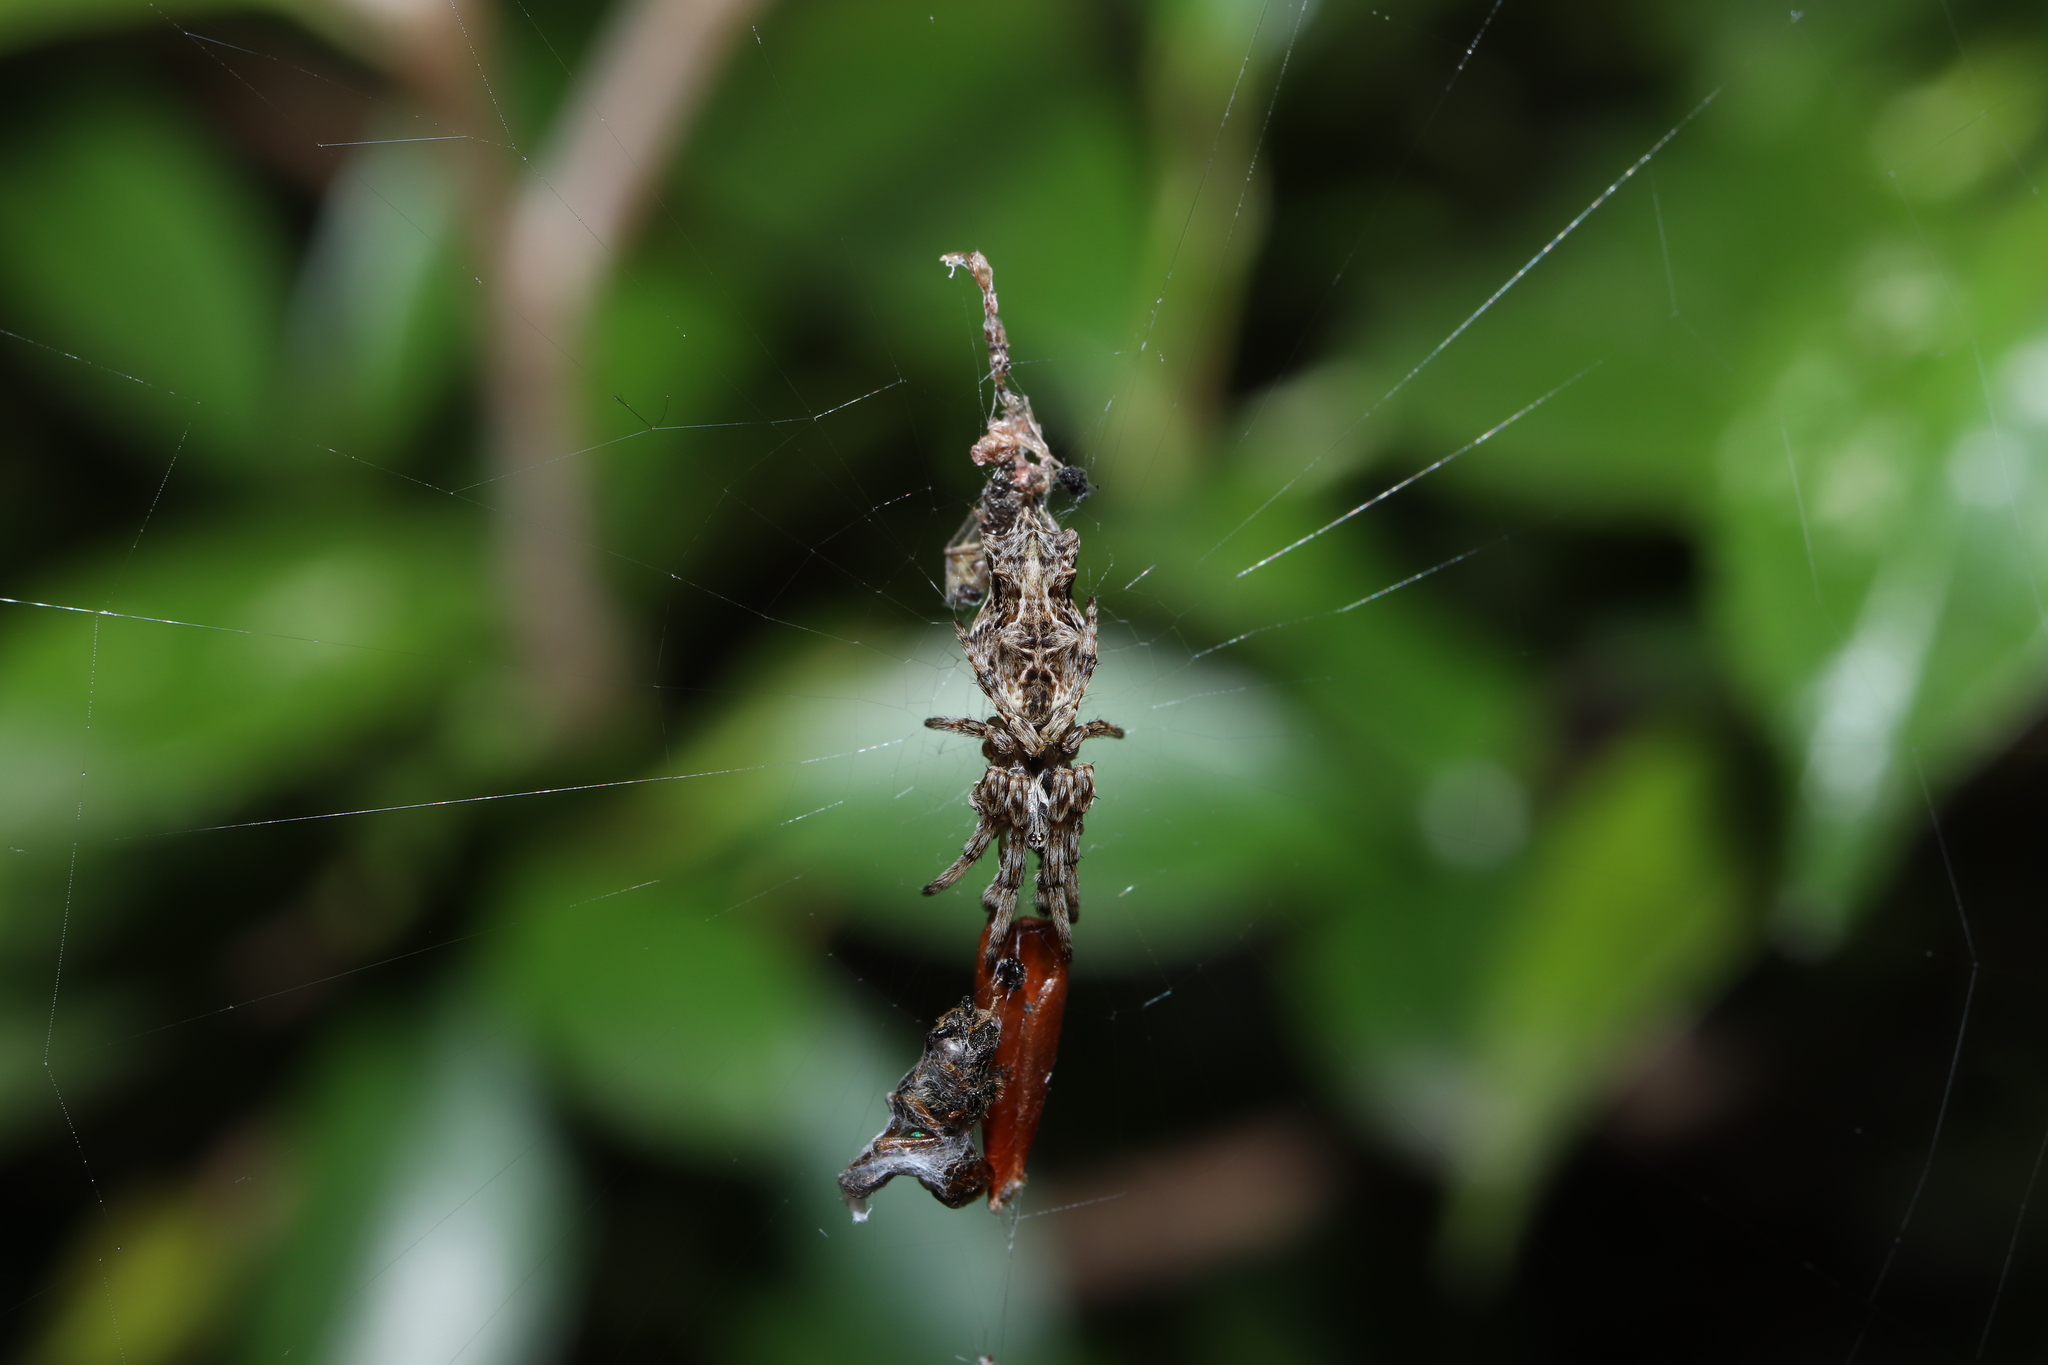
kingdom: Animalia
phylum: Arthropoda
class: Arachnida
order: Araneae
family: Araneidae
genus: Cyclosa
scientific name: Cyclosa octotuberculata
